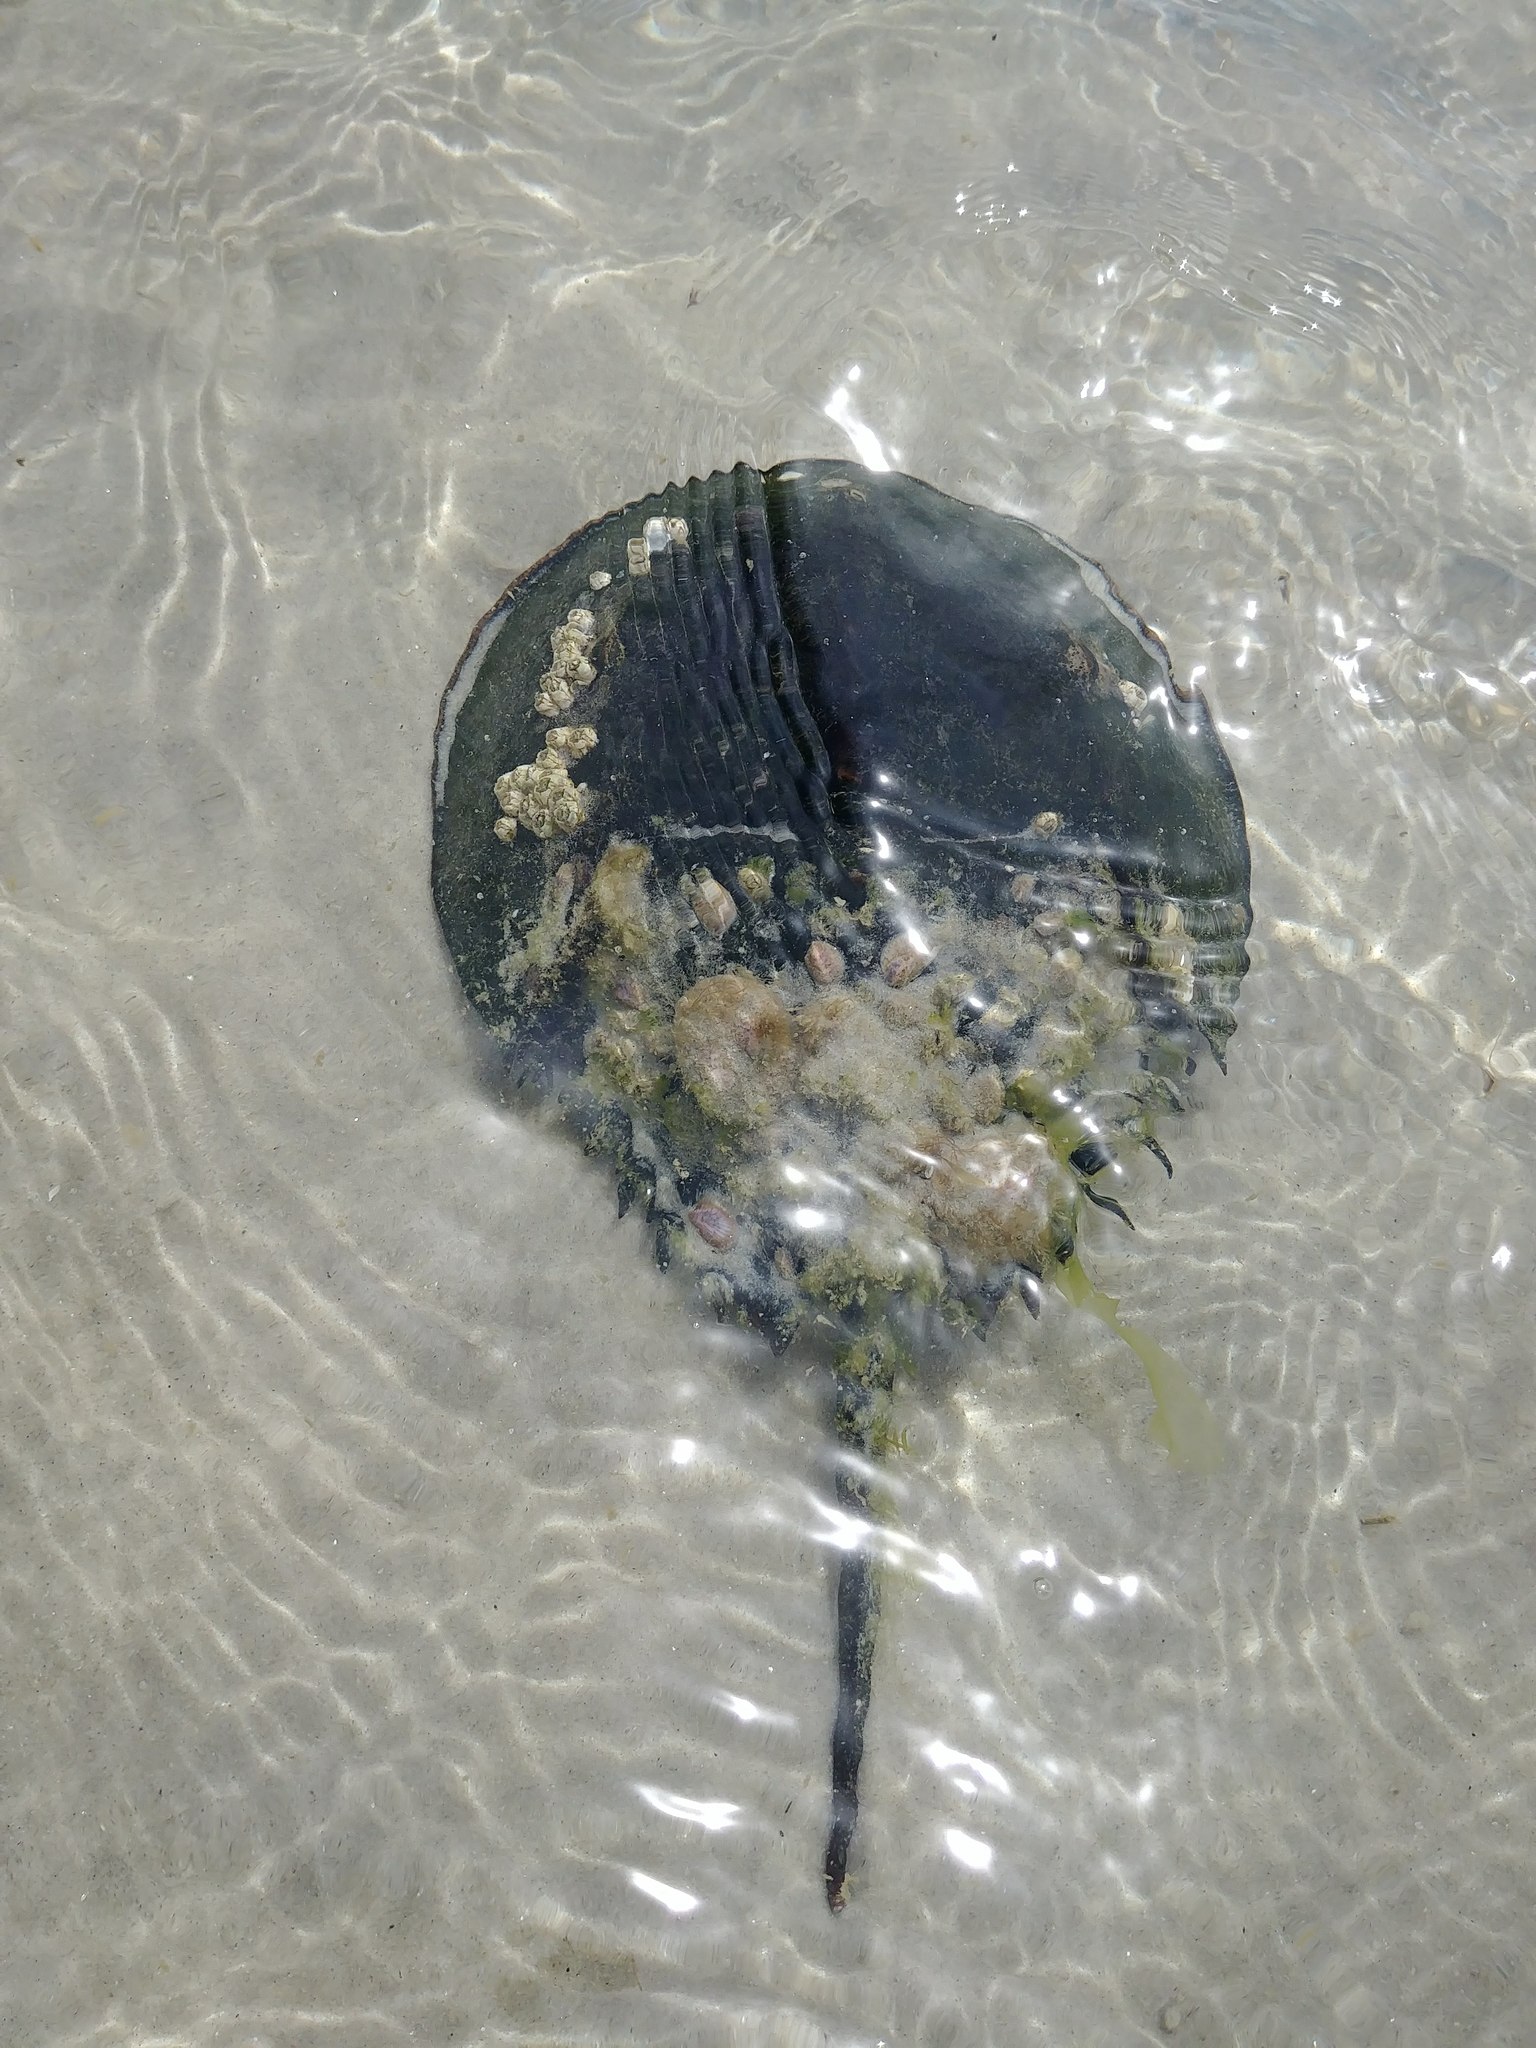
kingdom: Animalia
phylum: Arthropoda
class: Merostomata
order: Xiphosurida
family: Limulidae
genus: Limulus
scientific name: Limulus polyphemus
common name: Horseshoe crab
